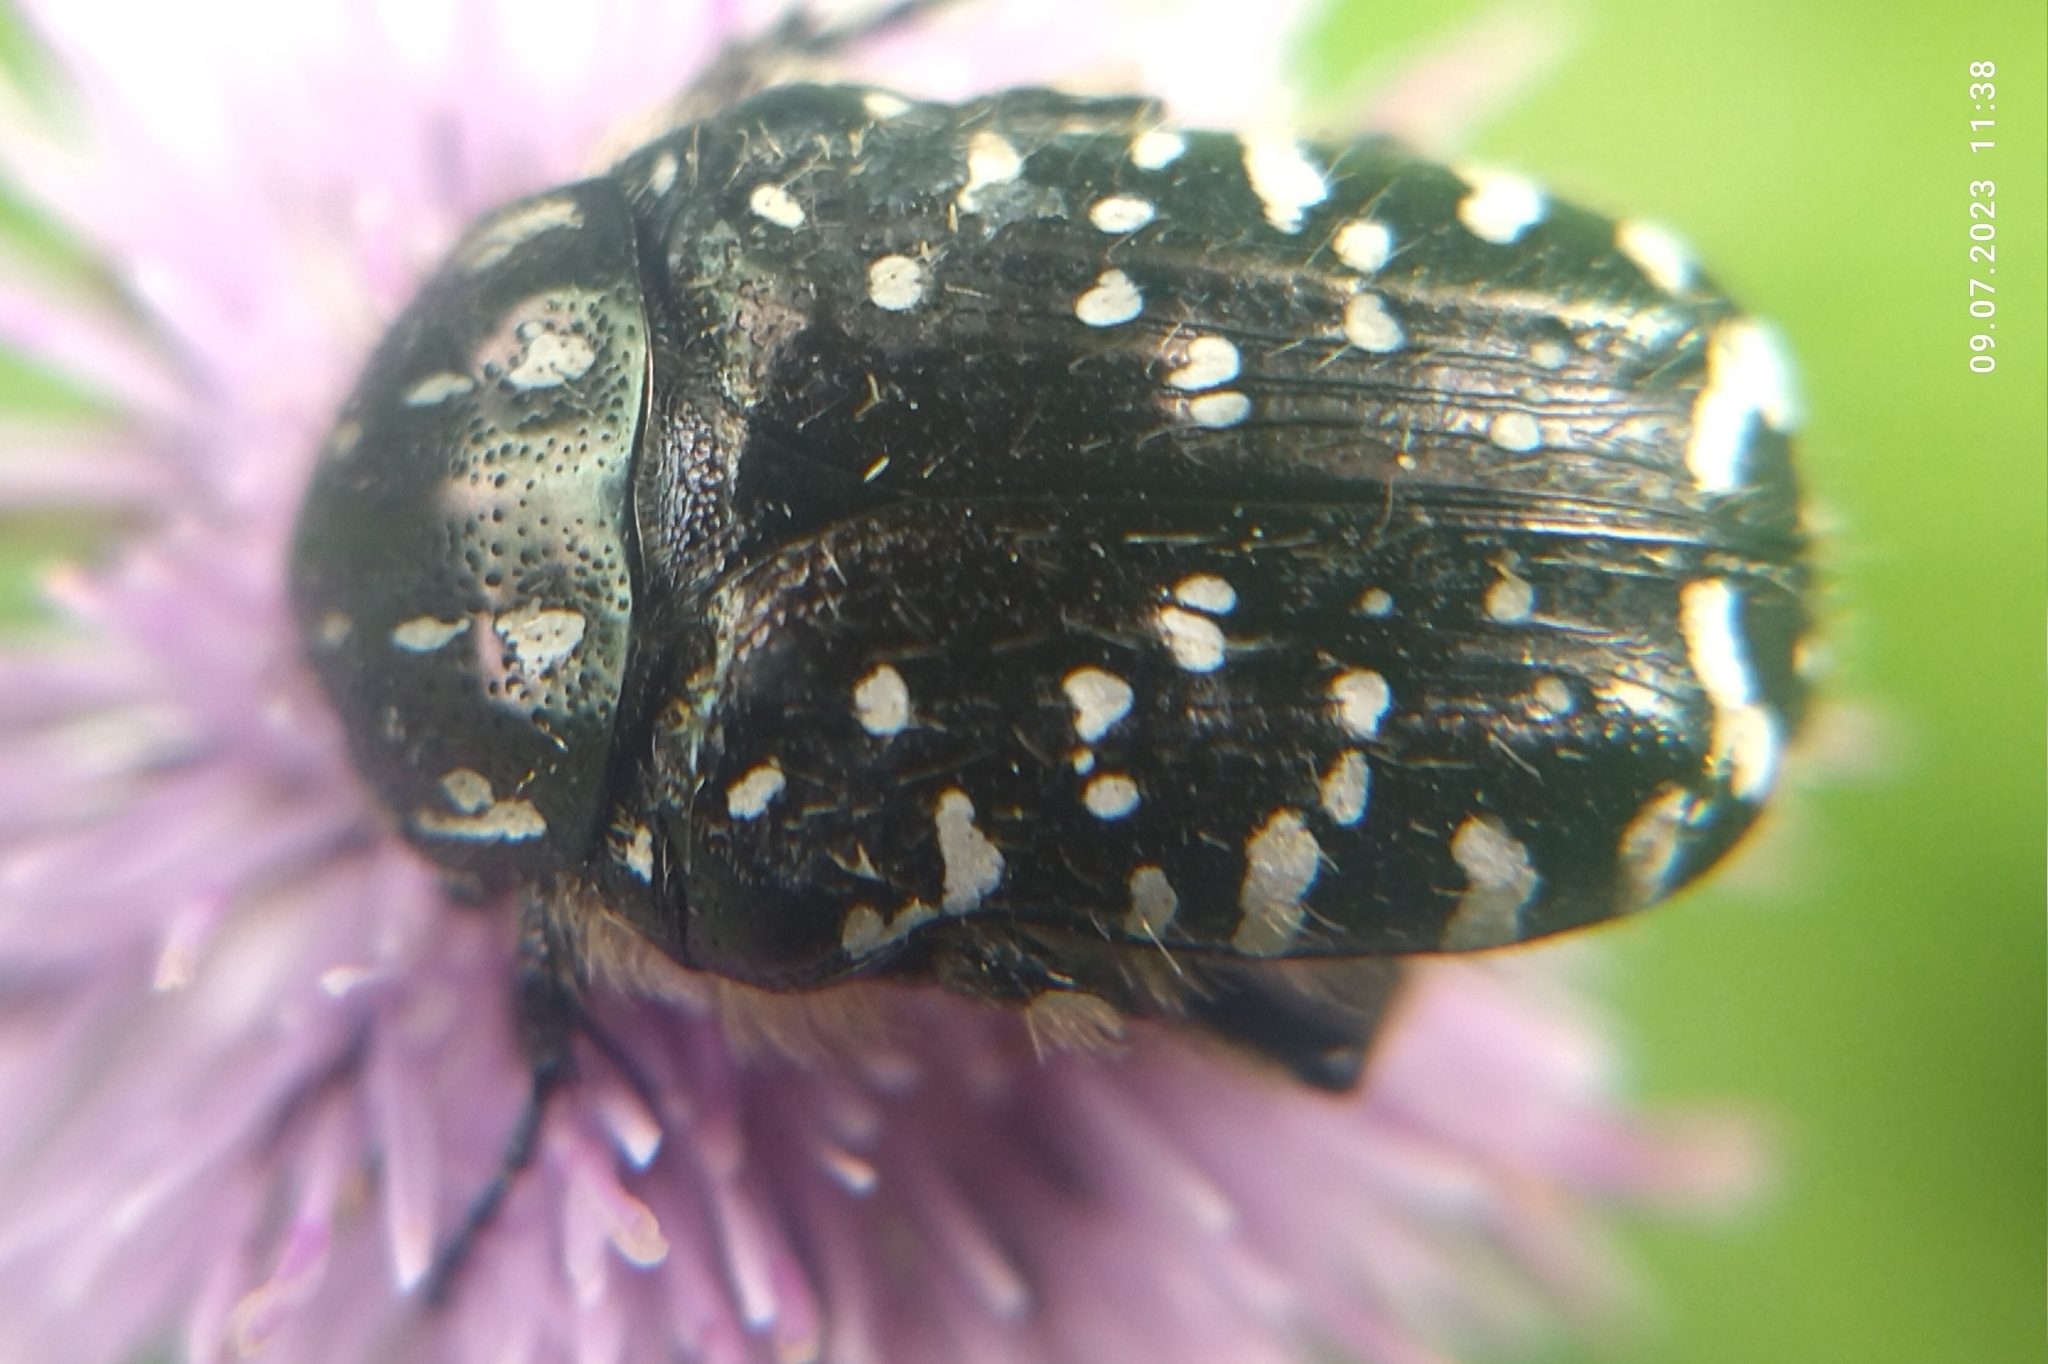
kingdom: Animalia
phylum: Arthropoda
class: Insecta
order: Coleoptera
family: Scarabaeidae
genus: Oxythyrea
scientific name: Oxythyrea funesta
